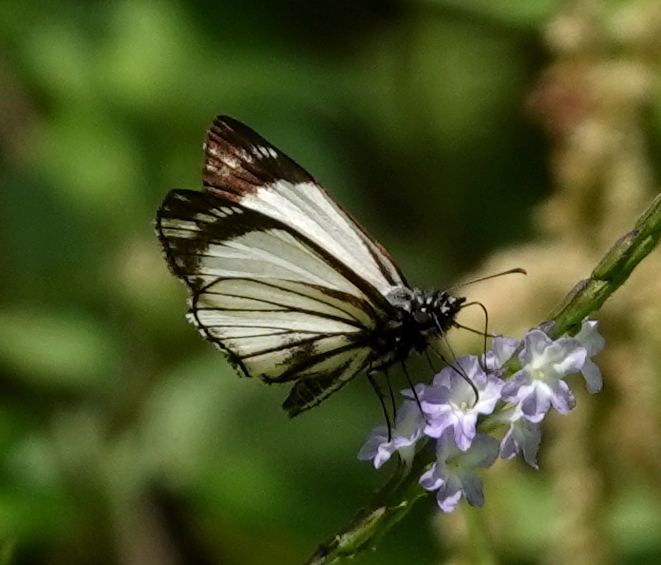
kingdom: Animalia
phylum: Arthropoda
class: Insecta
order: Lepidoptera
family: Hesperiidae
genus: Heliopetes
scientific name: Heliopetes alana
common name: Alana white-skipper
